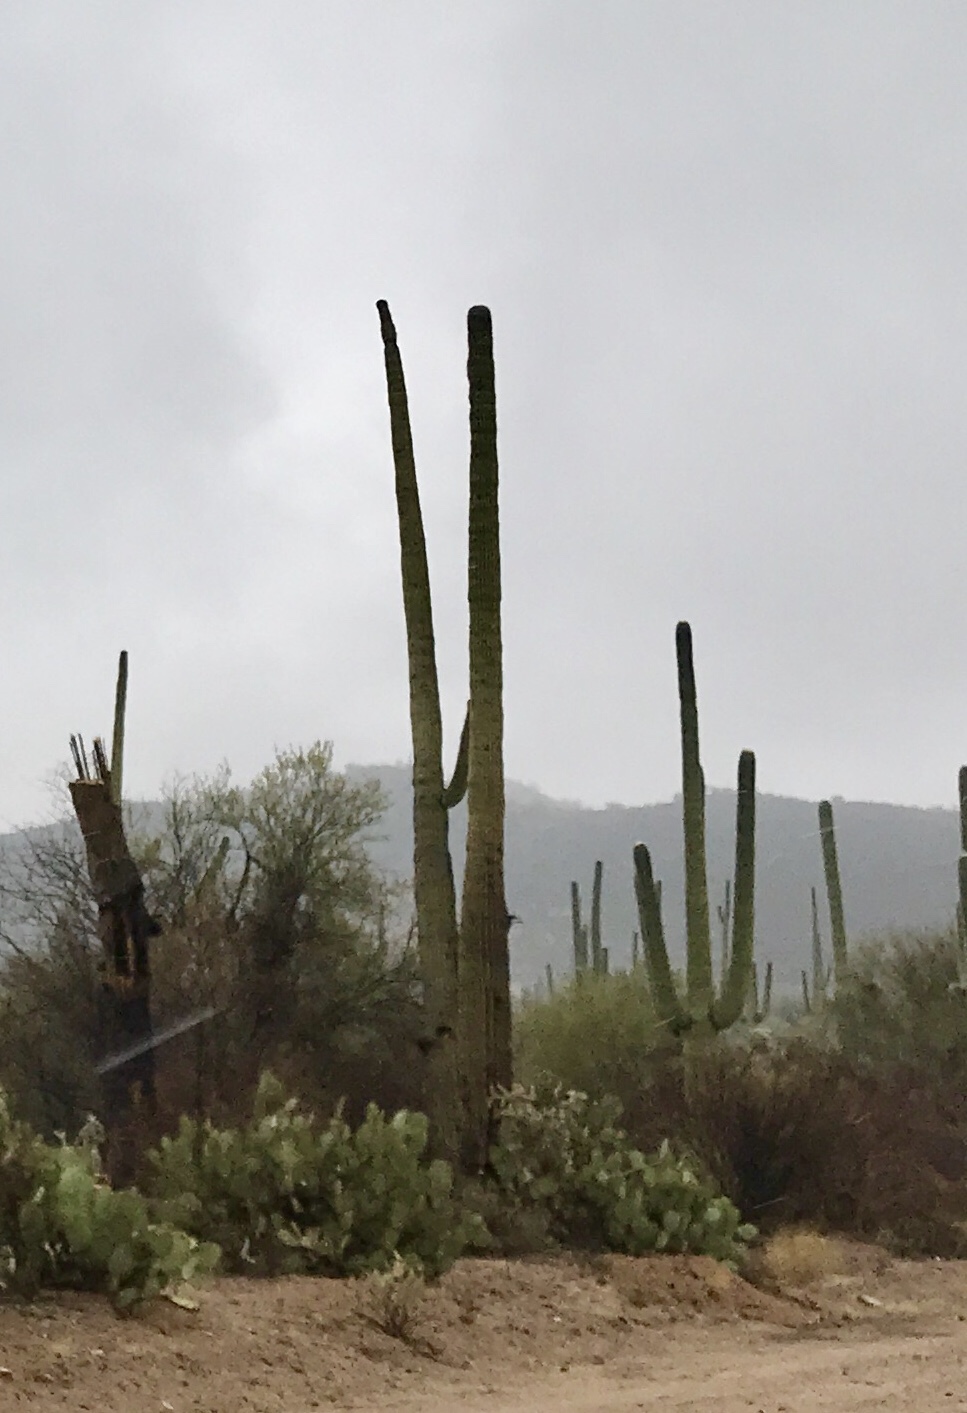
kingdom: Plantae
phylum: Tracheophyta
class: Magnoliopsida
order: Caryophyllales
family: Cactaceae
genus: Carnegiea
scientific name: Carnegiea gigantea
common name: Saguaro
